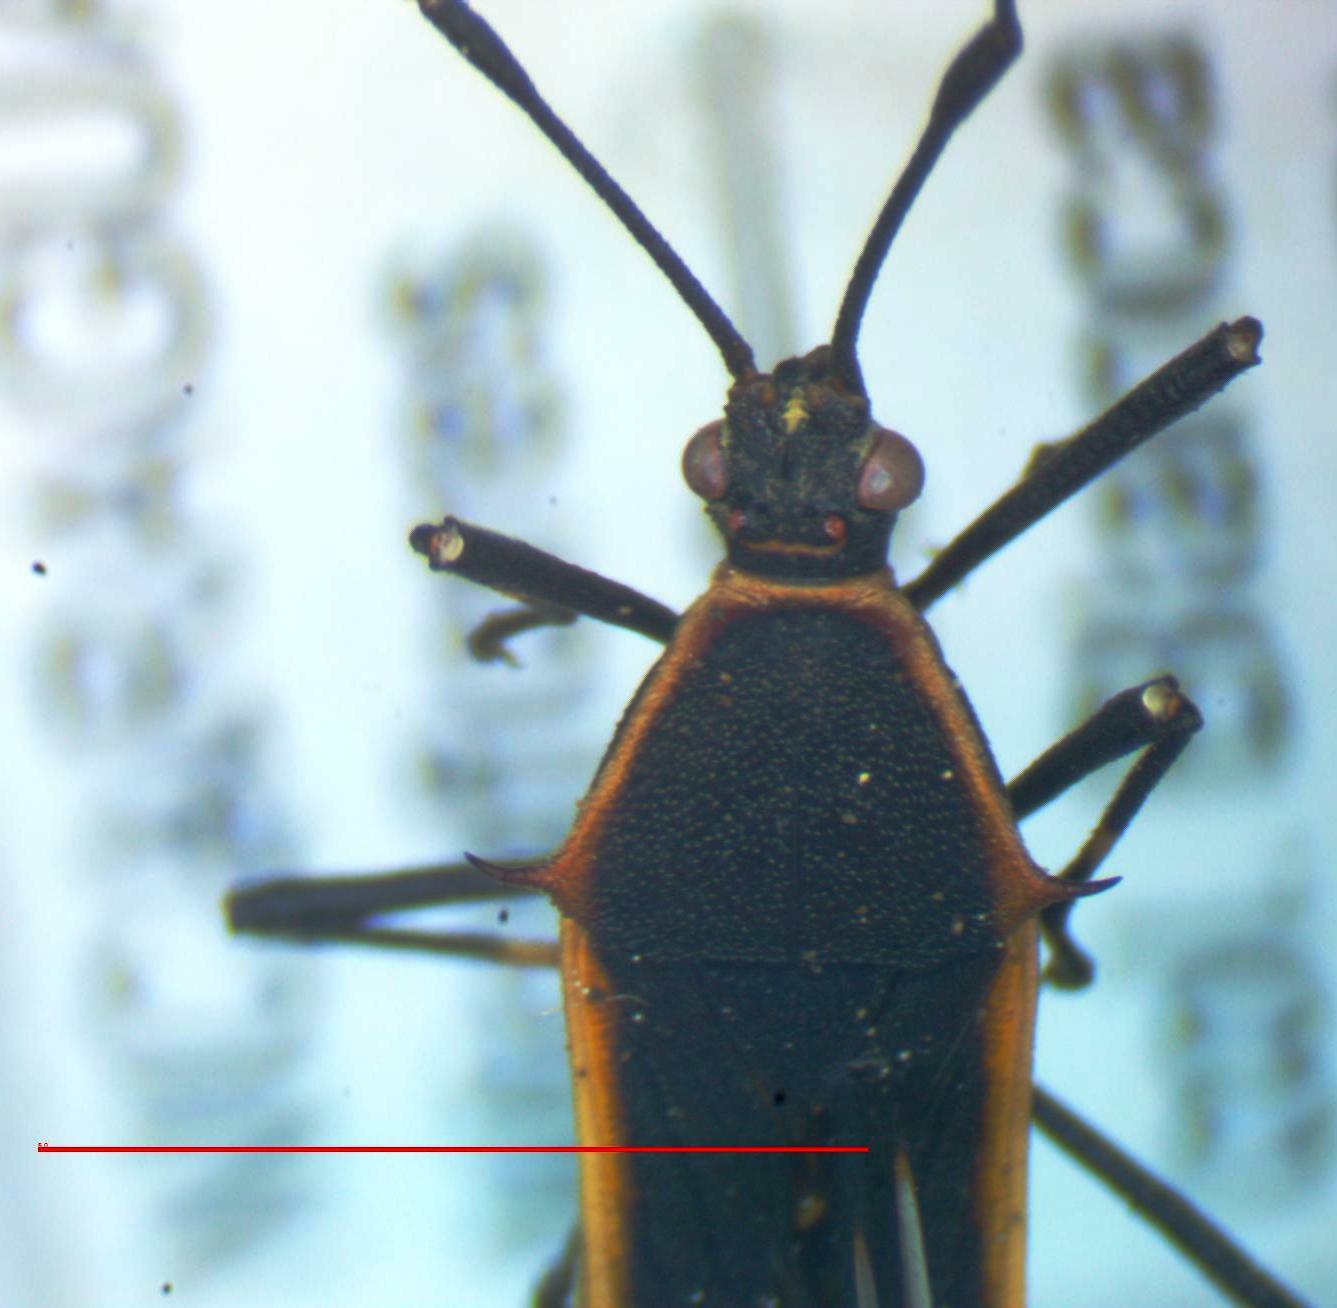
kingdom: Animalia
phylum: Arthropoda
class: Insecta
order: Hemiptera
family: Coreidae
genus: Plapigus
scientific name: Plapigus circumcinctus
